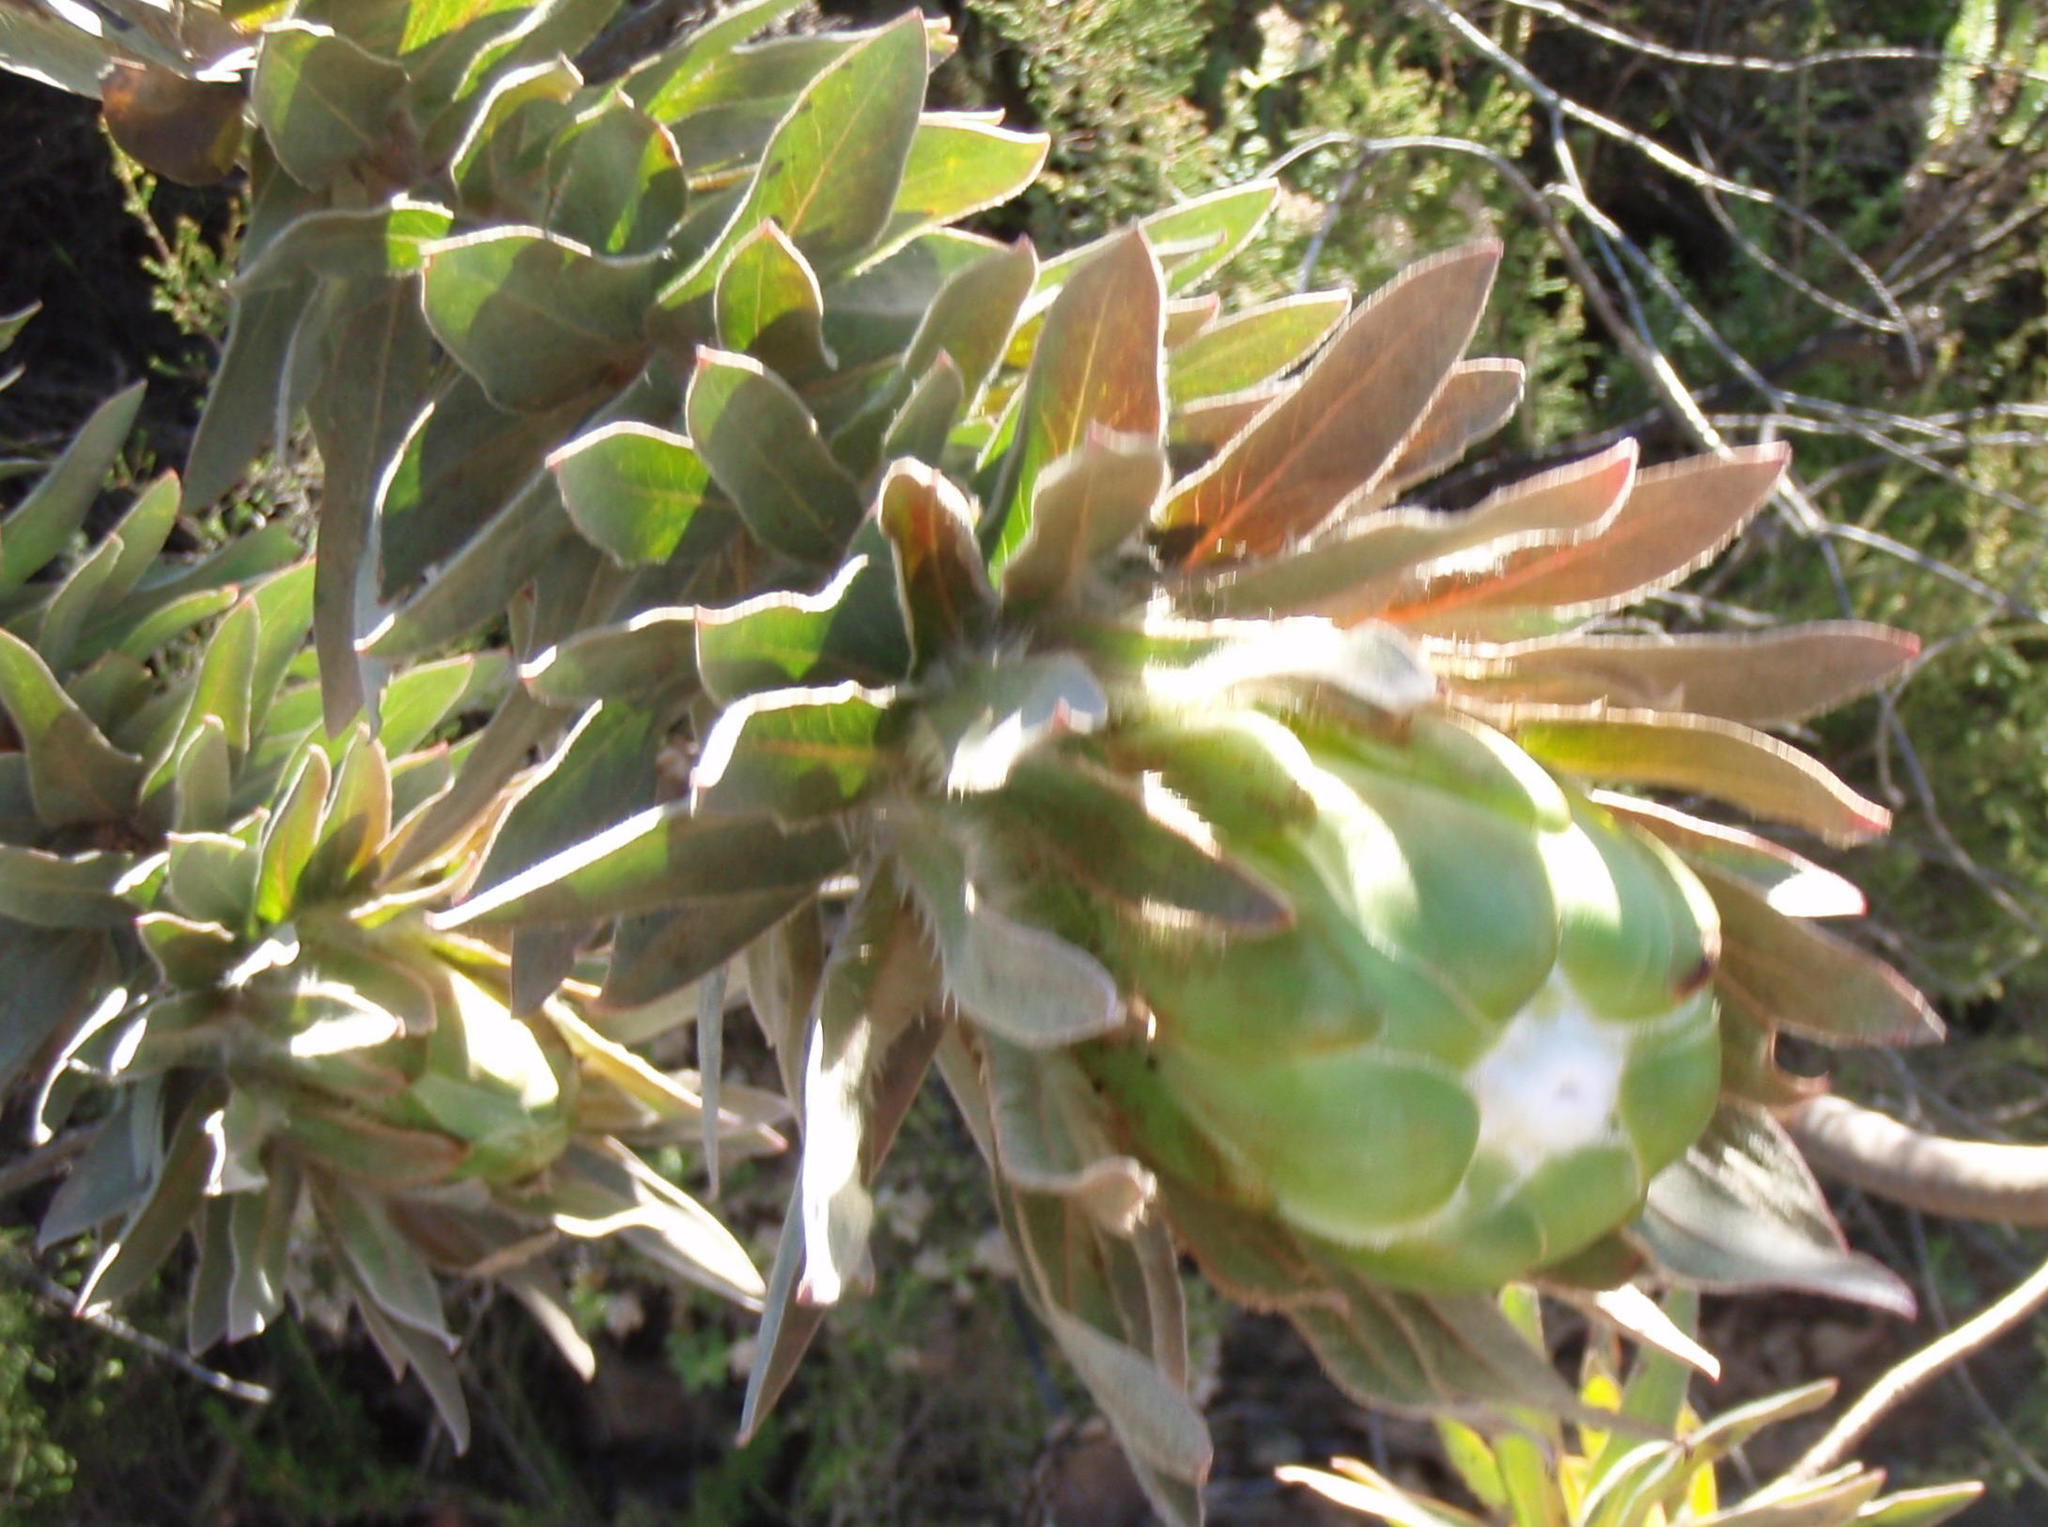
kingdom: Plantae
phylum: Tracheophyta
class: Magnoliopsida
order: Proteales
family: Proteaceae
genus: Protea
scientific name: Protea coronata
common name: Green sugarbush
